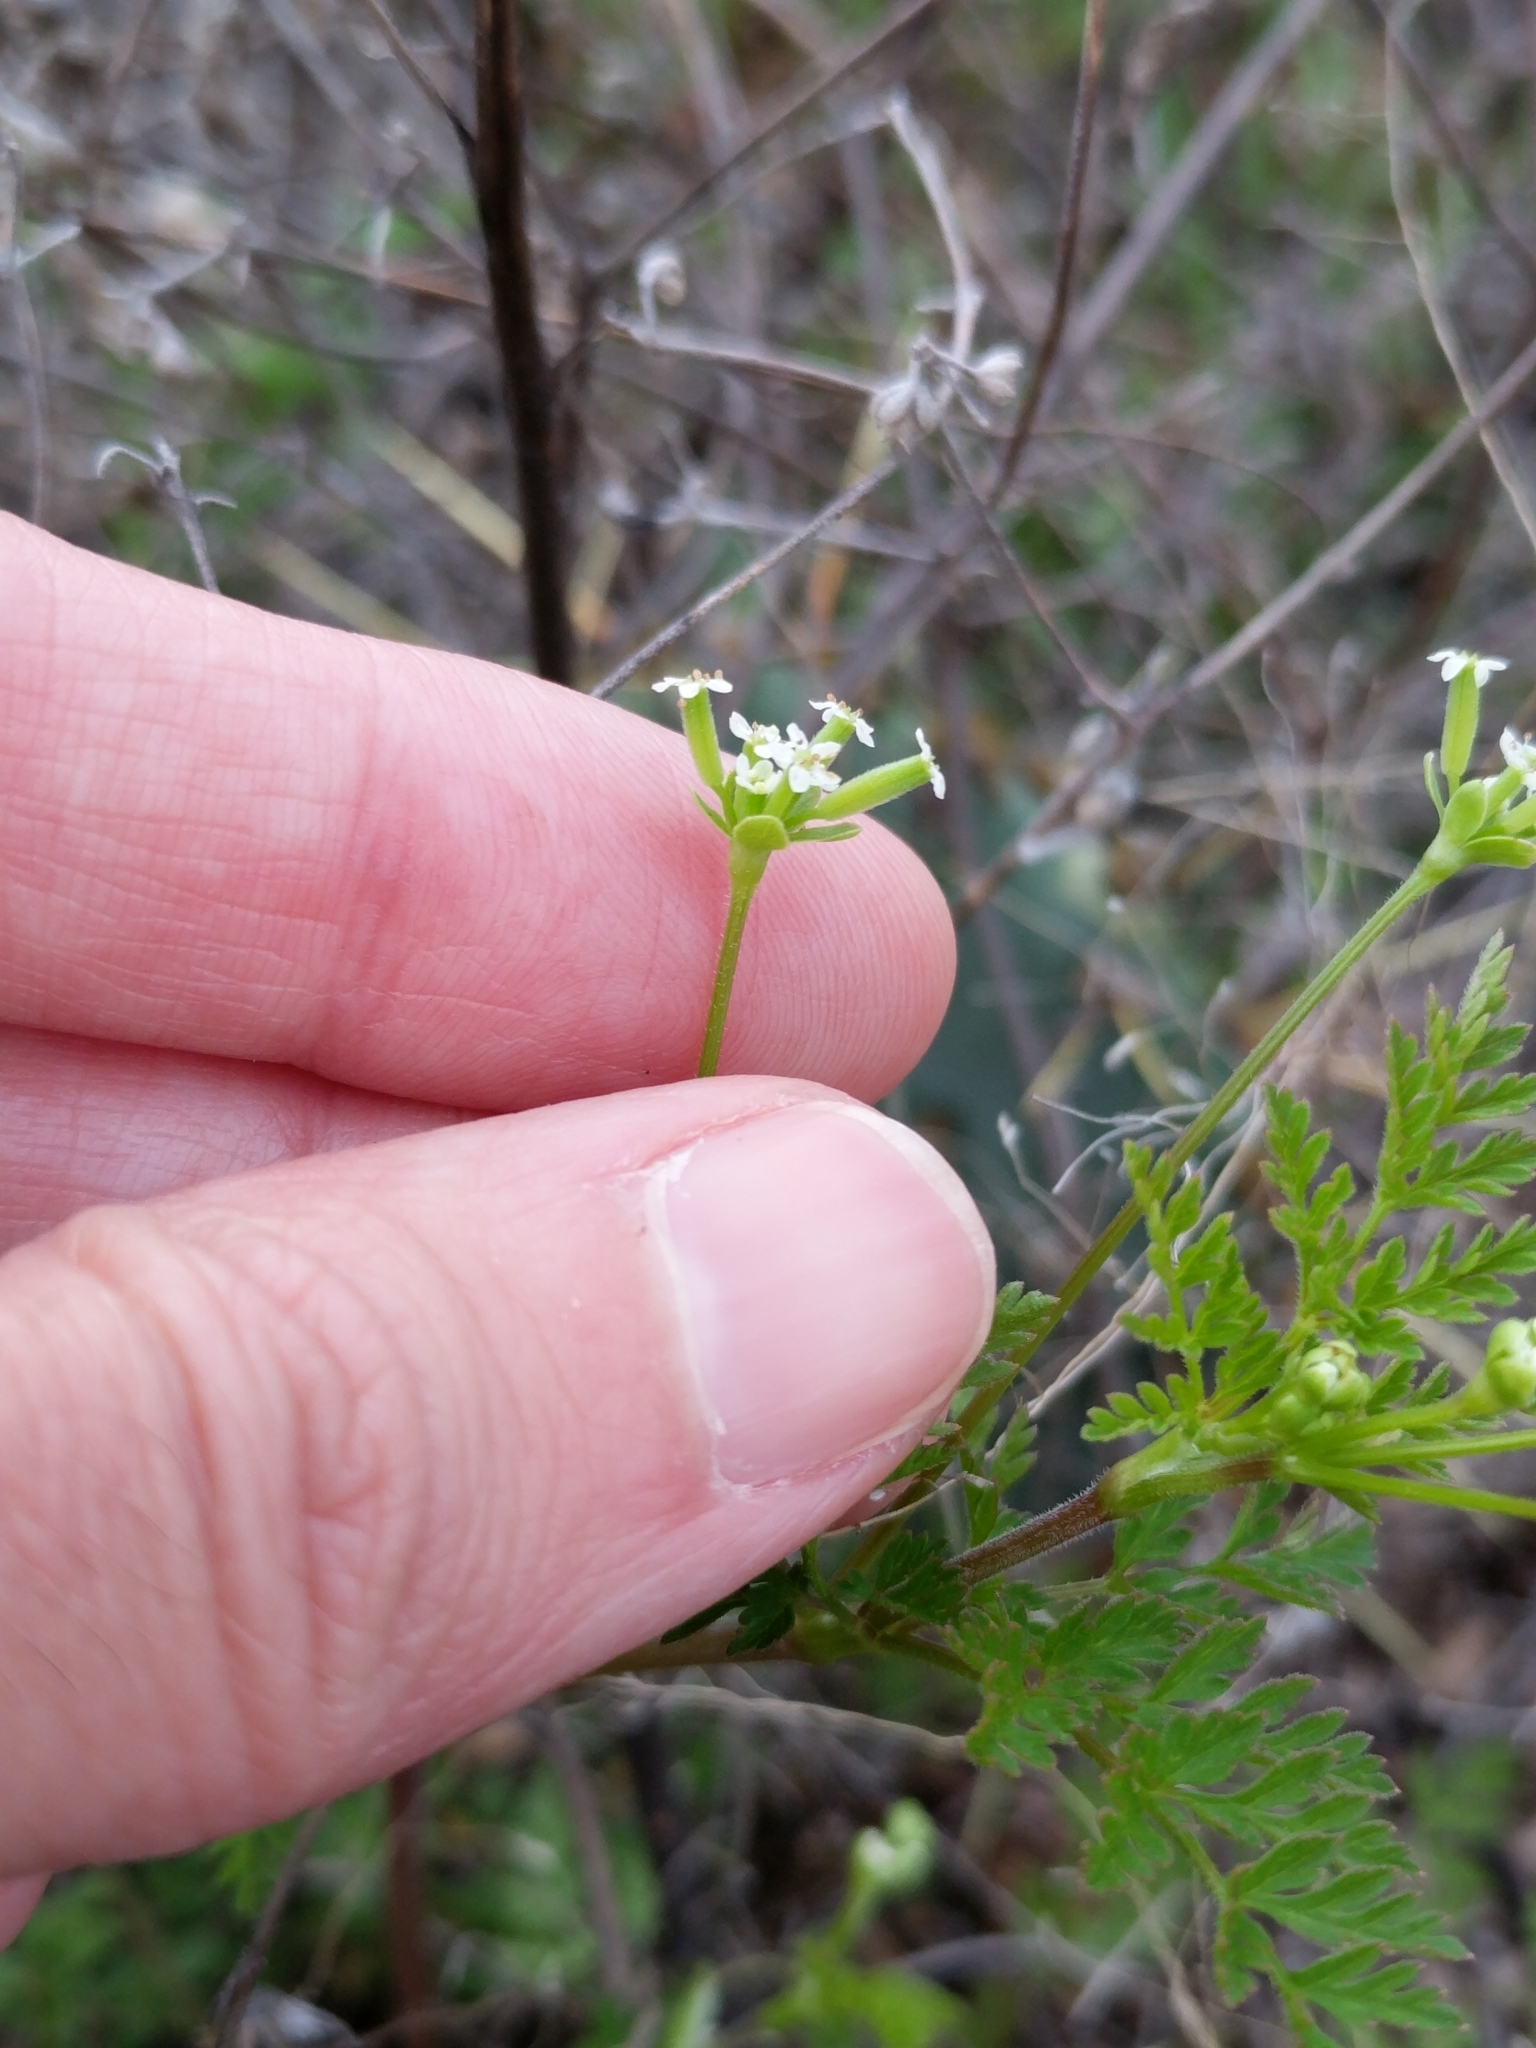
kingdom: Plantae
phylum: Tracheophyta
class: Magnoliopsida
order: Apiales
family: Apiaceae
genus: Chaerophyllum
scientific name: Chaerophyllum tainturieri
